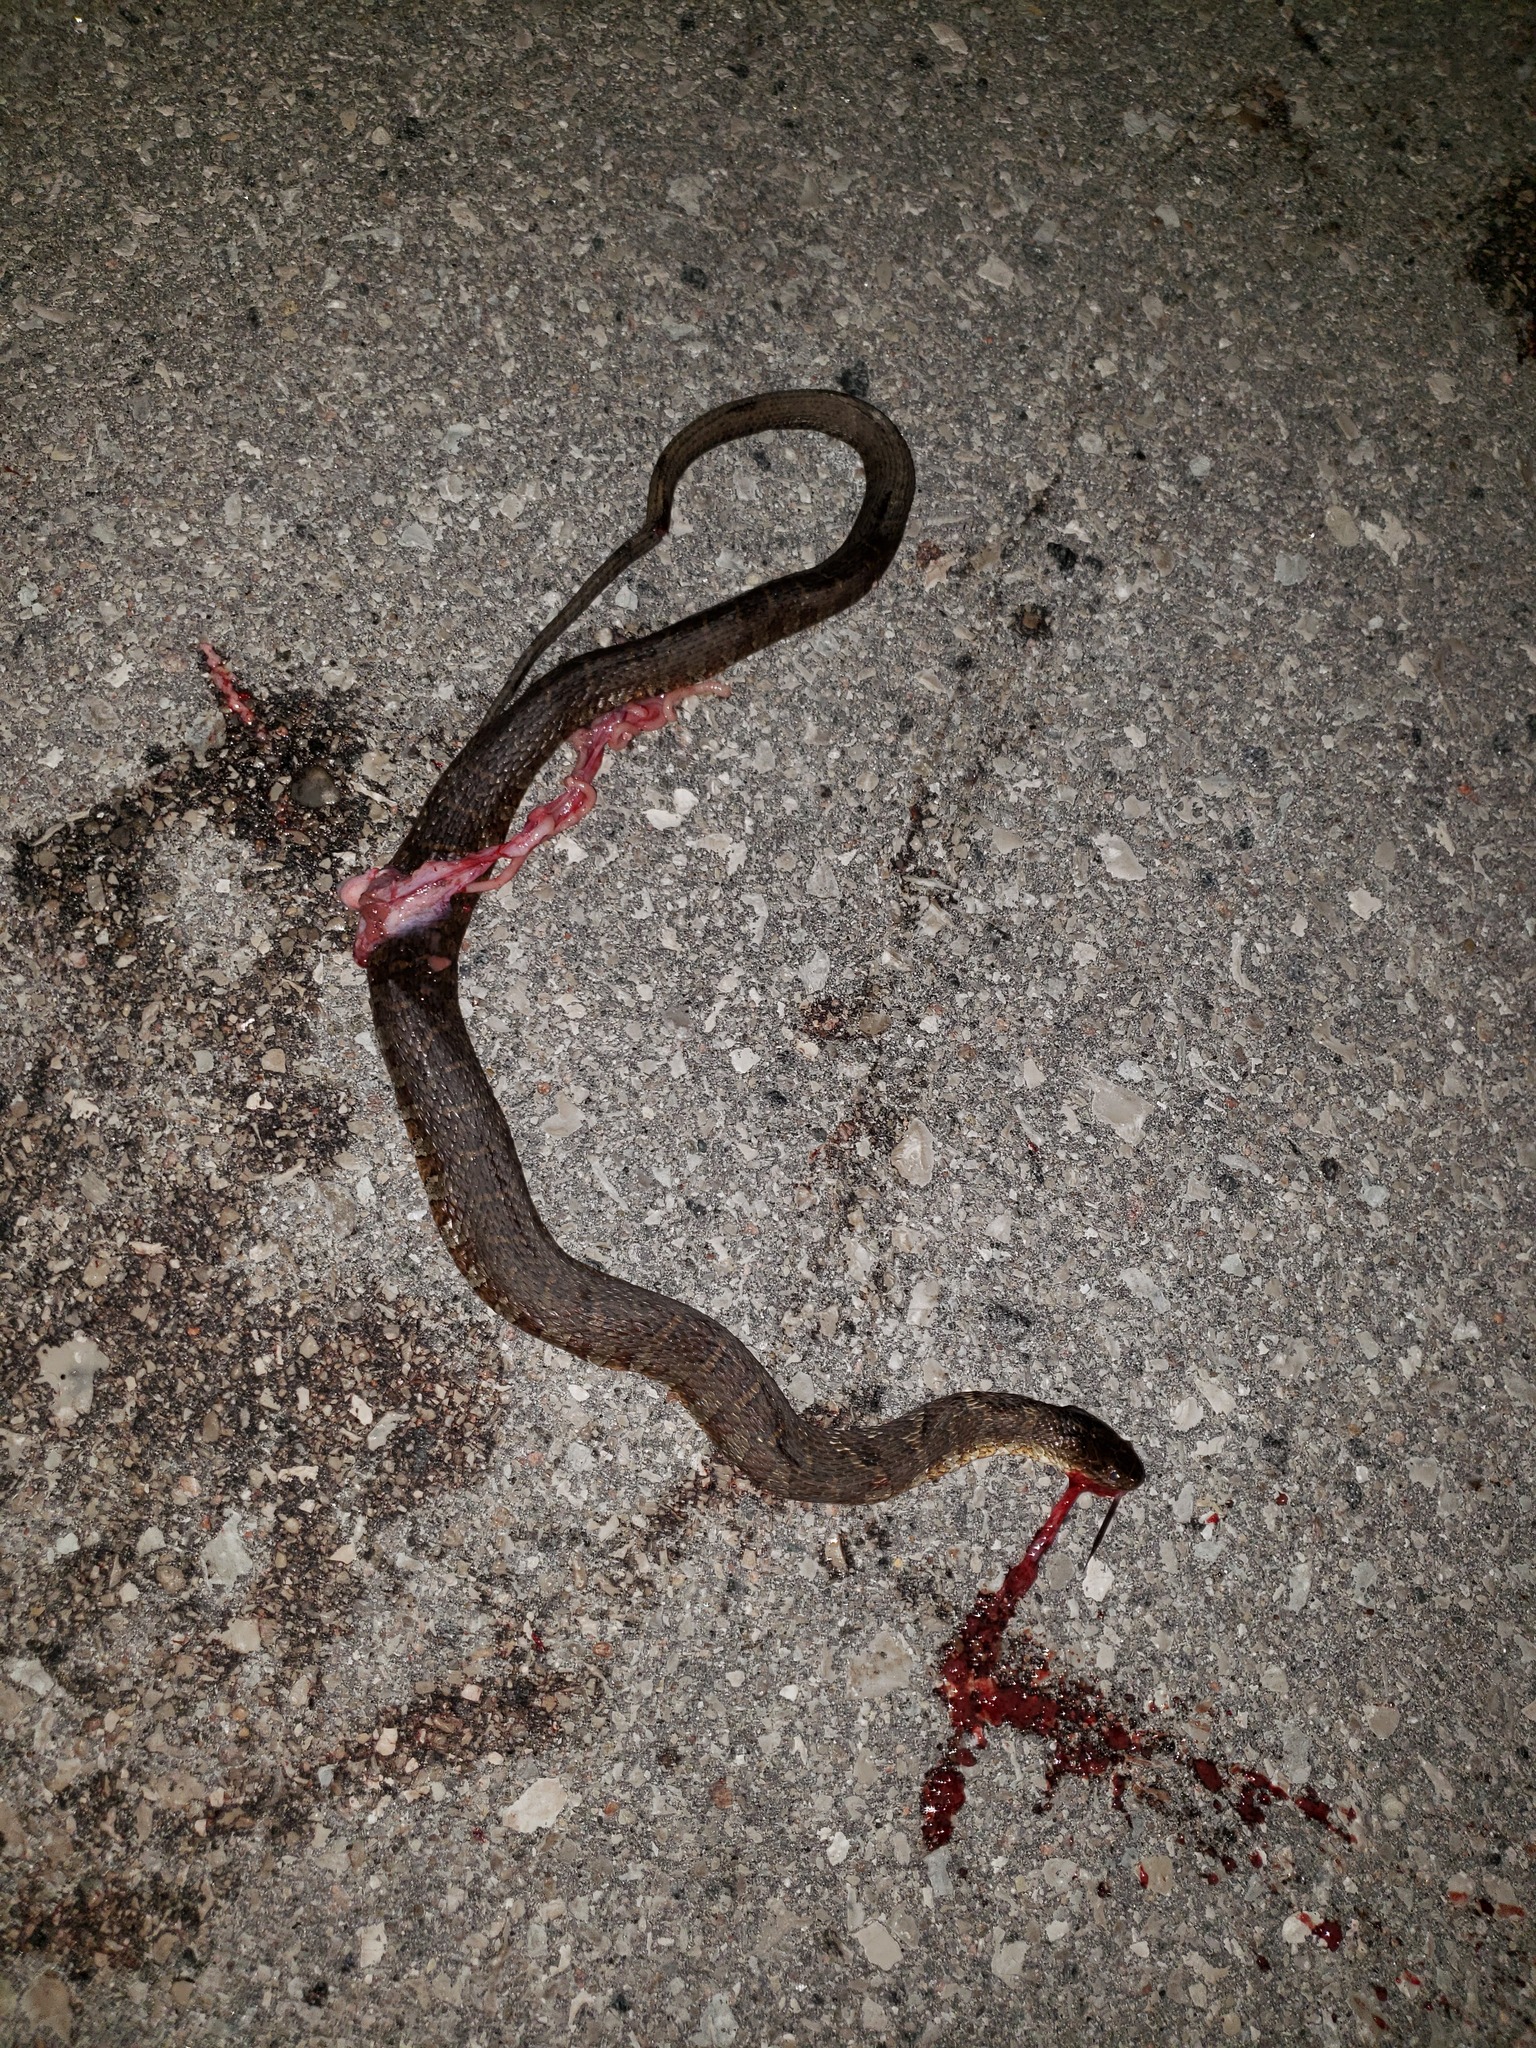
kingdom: Animalia
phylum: Chordata
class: Squamata
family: Colubridae
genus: Nerodia
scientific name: Nerodia sipedon
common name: Northern water snake
